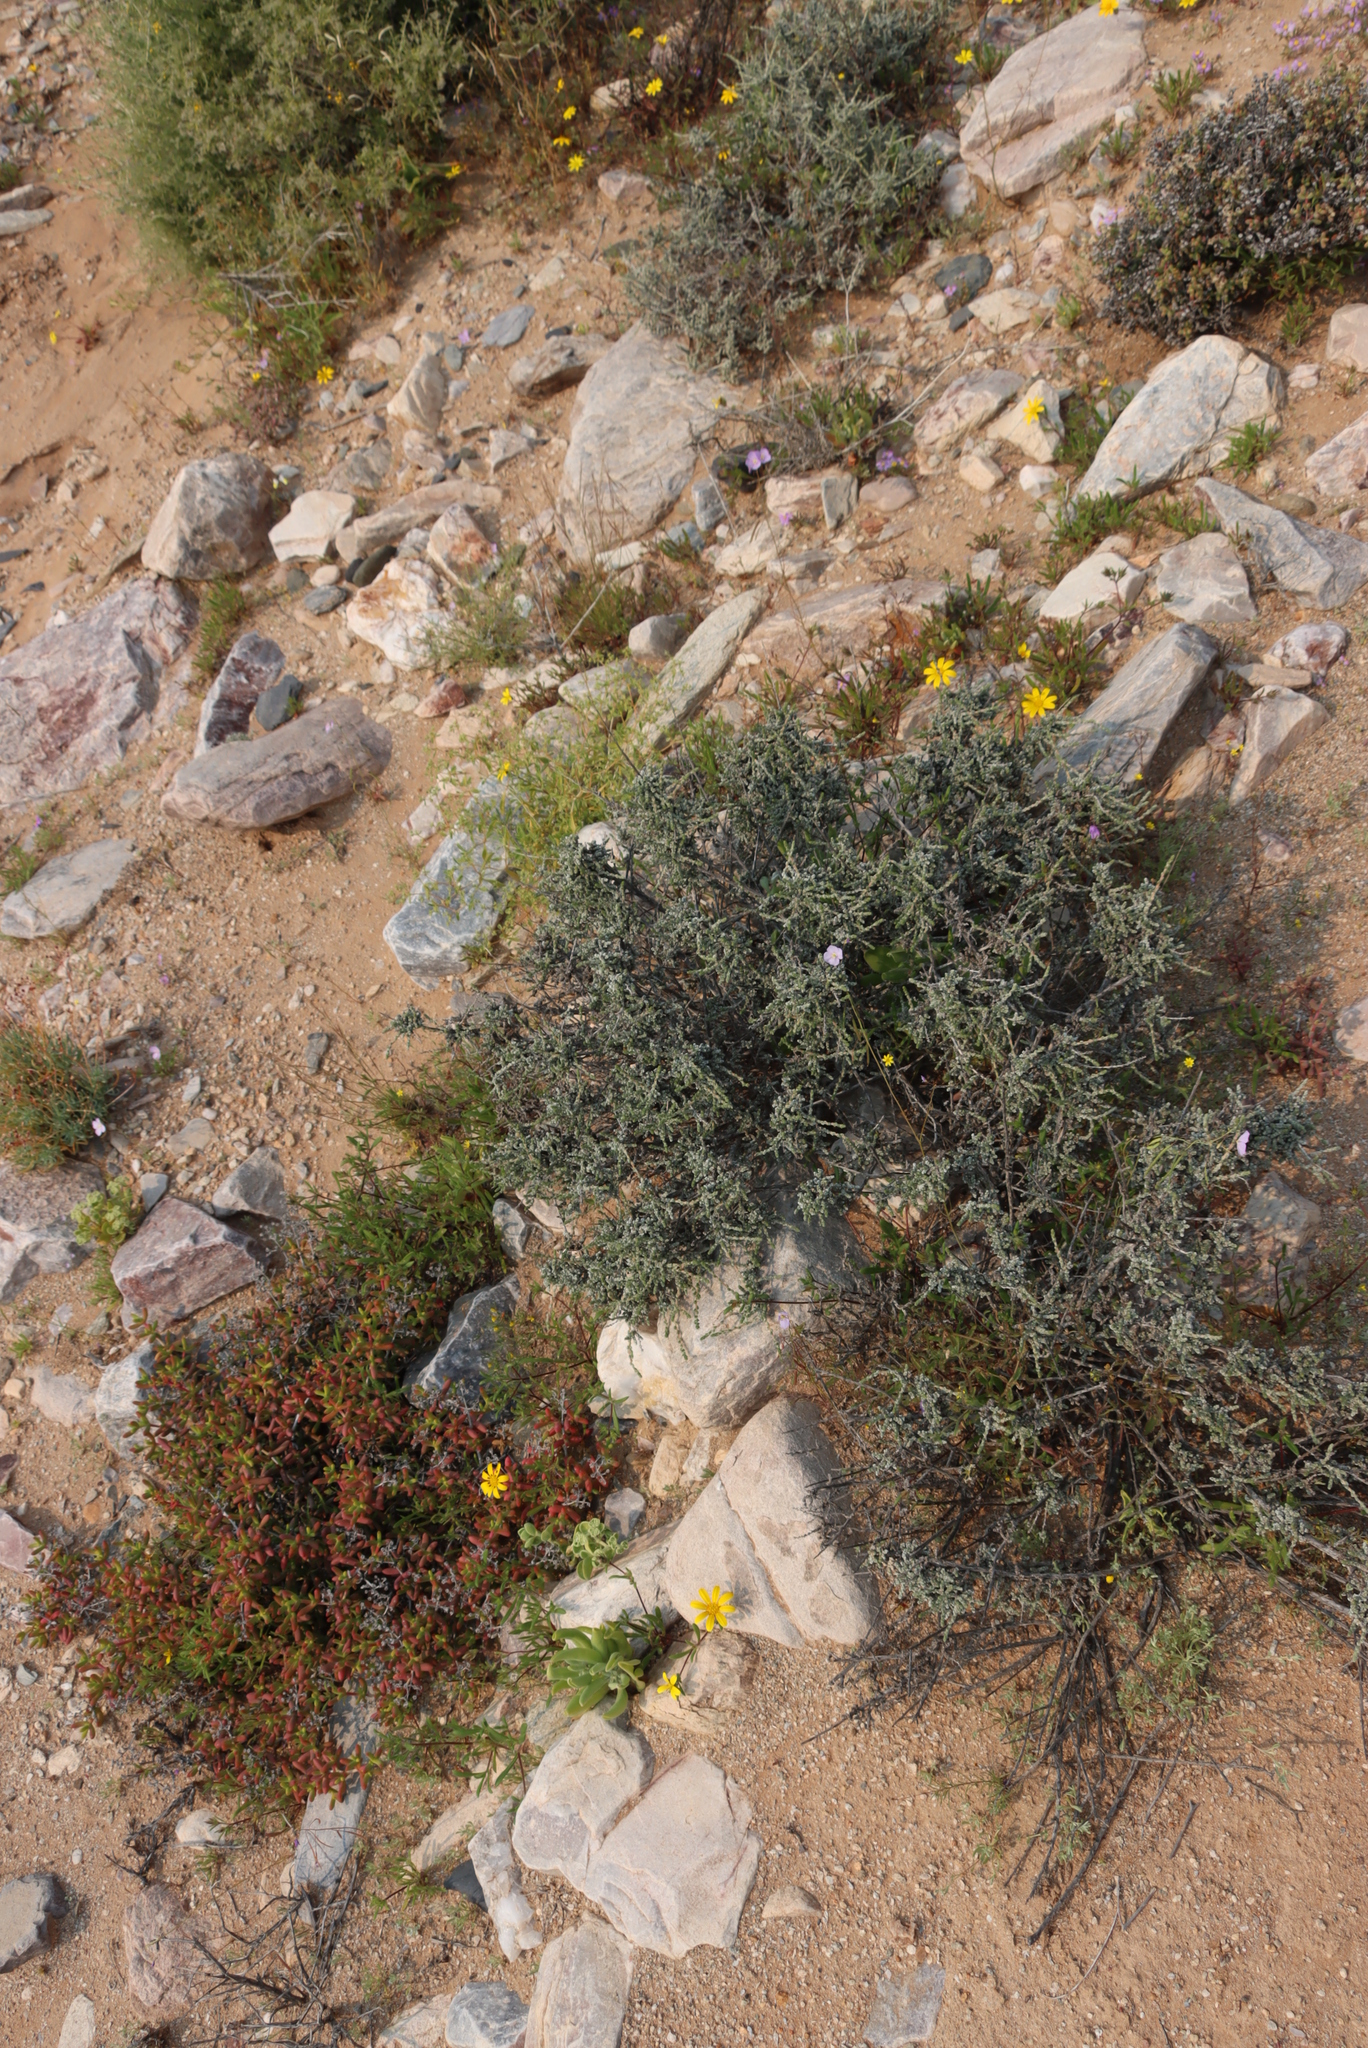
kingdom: Plantae
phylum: Tracheophyta
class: Magnoliopsida
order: Brassicales
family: Brassicaceae
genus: Heliophila
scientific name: Heliophila trifurca
